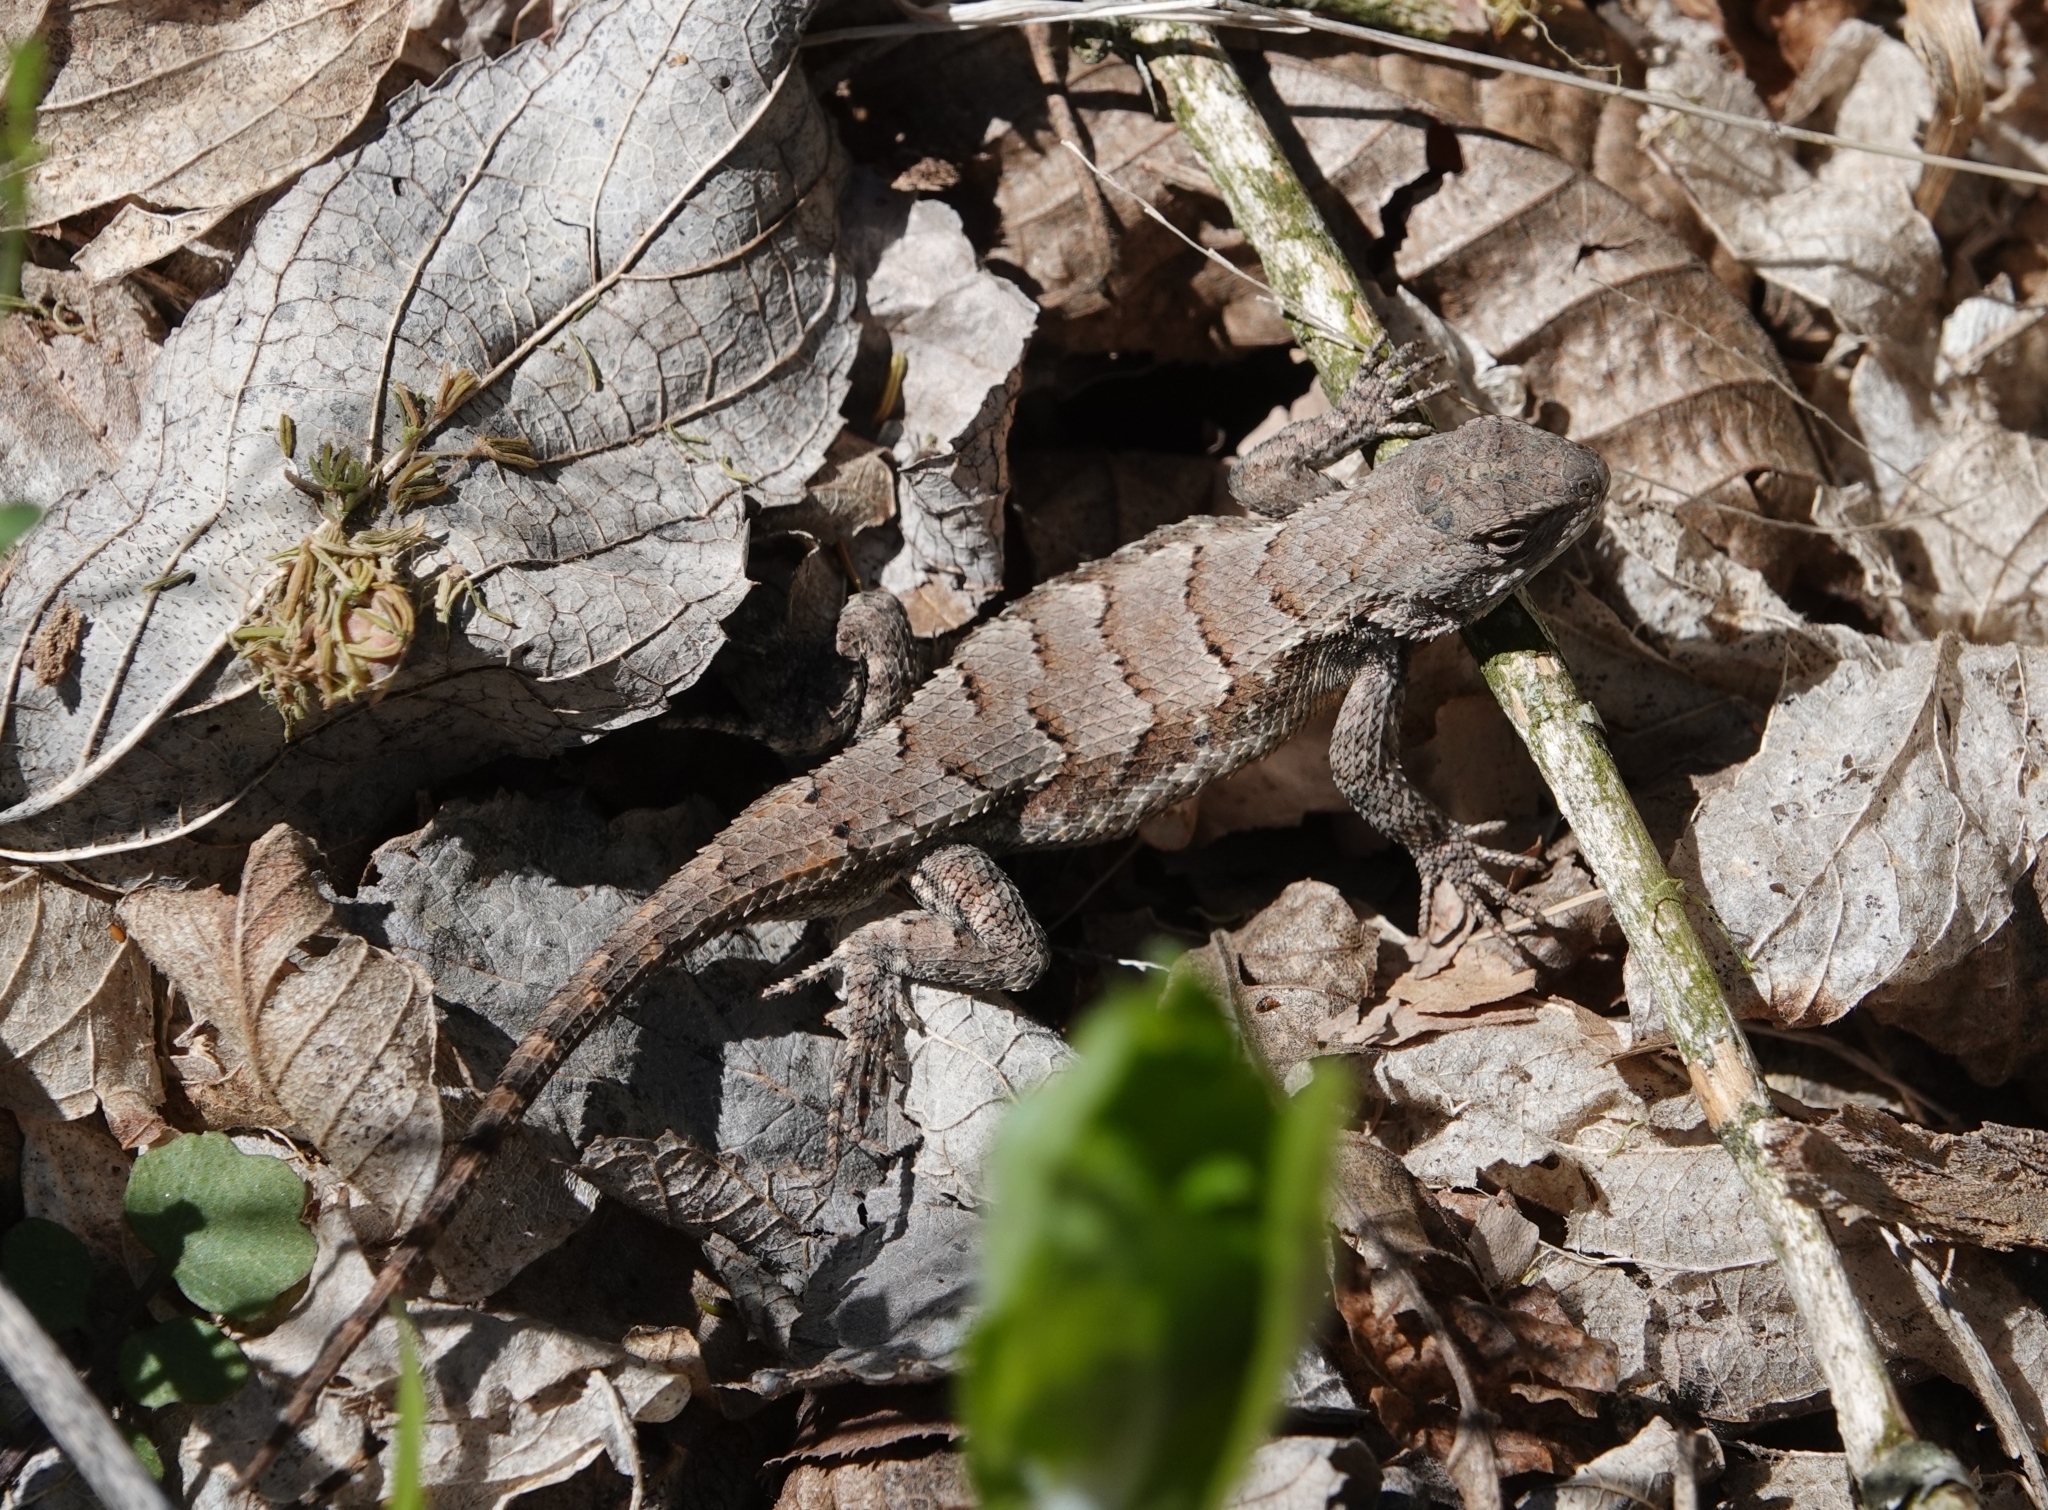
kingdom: Animalia
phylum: Chordata
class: Squamata
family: Phrynosomatidae
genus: Sceloporus
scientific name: Sceloporus consobrinus
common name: Southern prairie lizard
